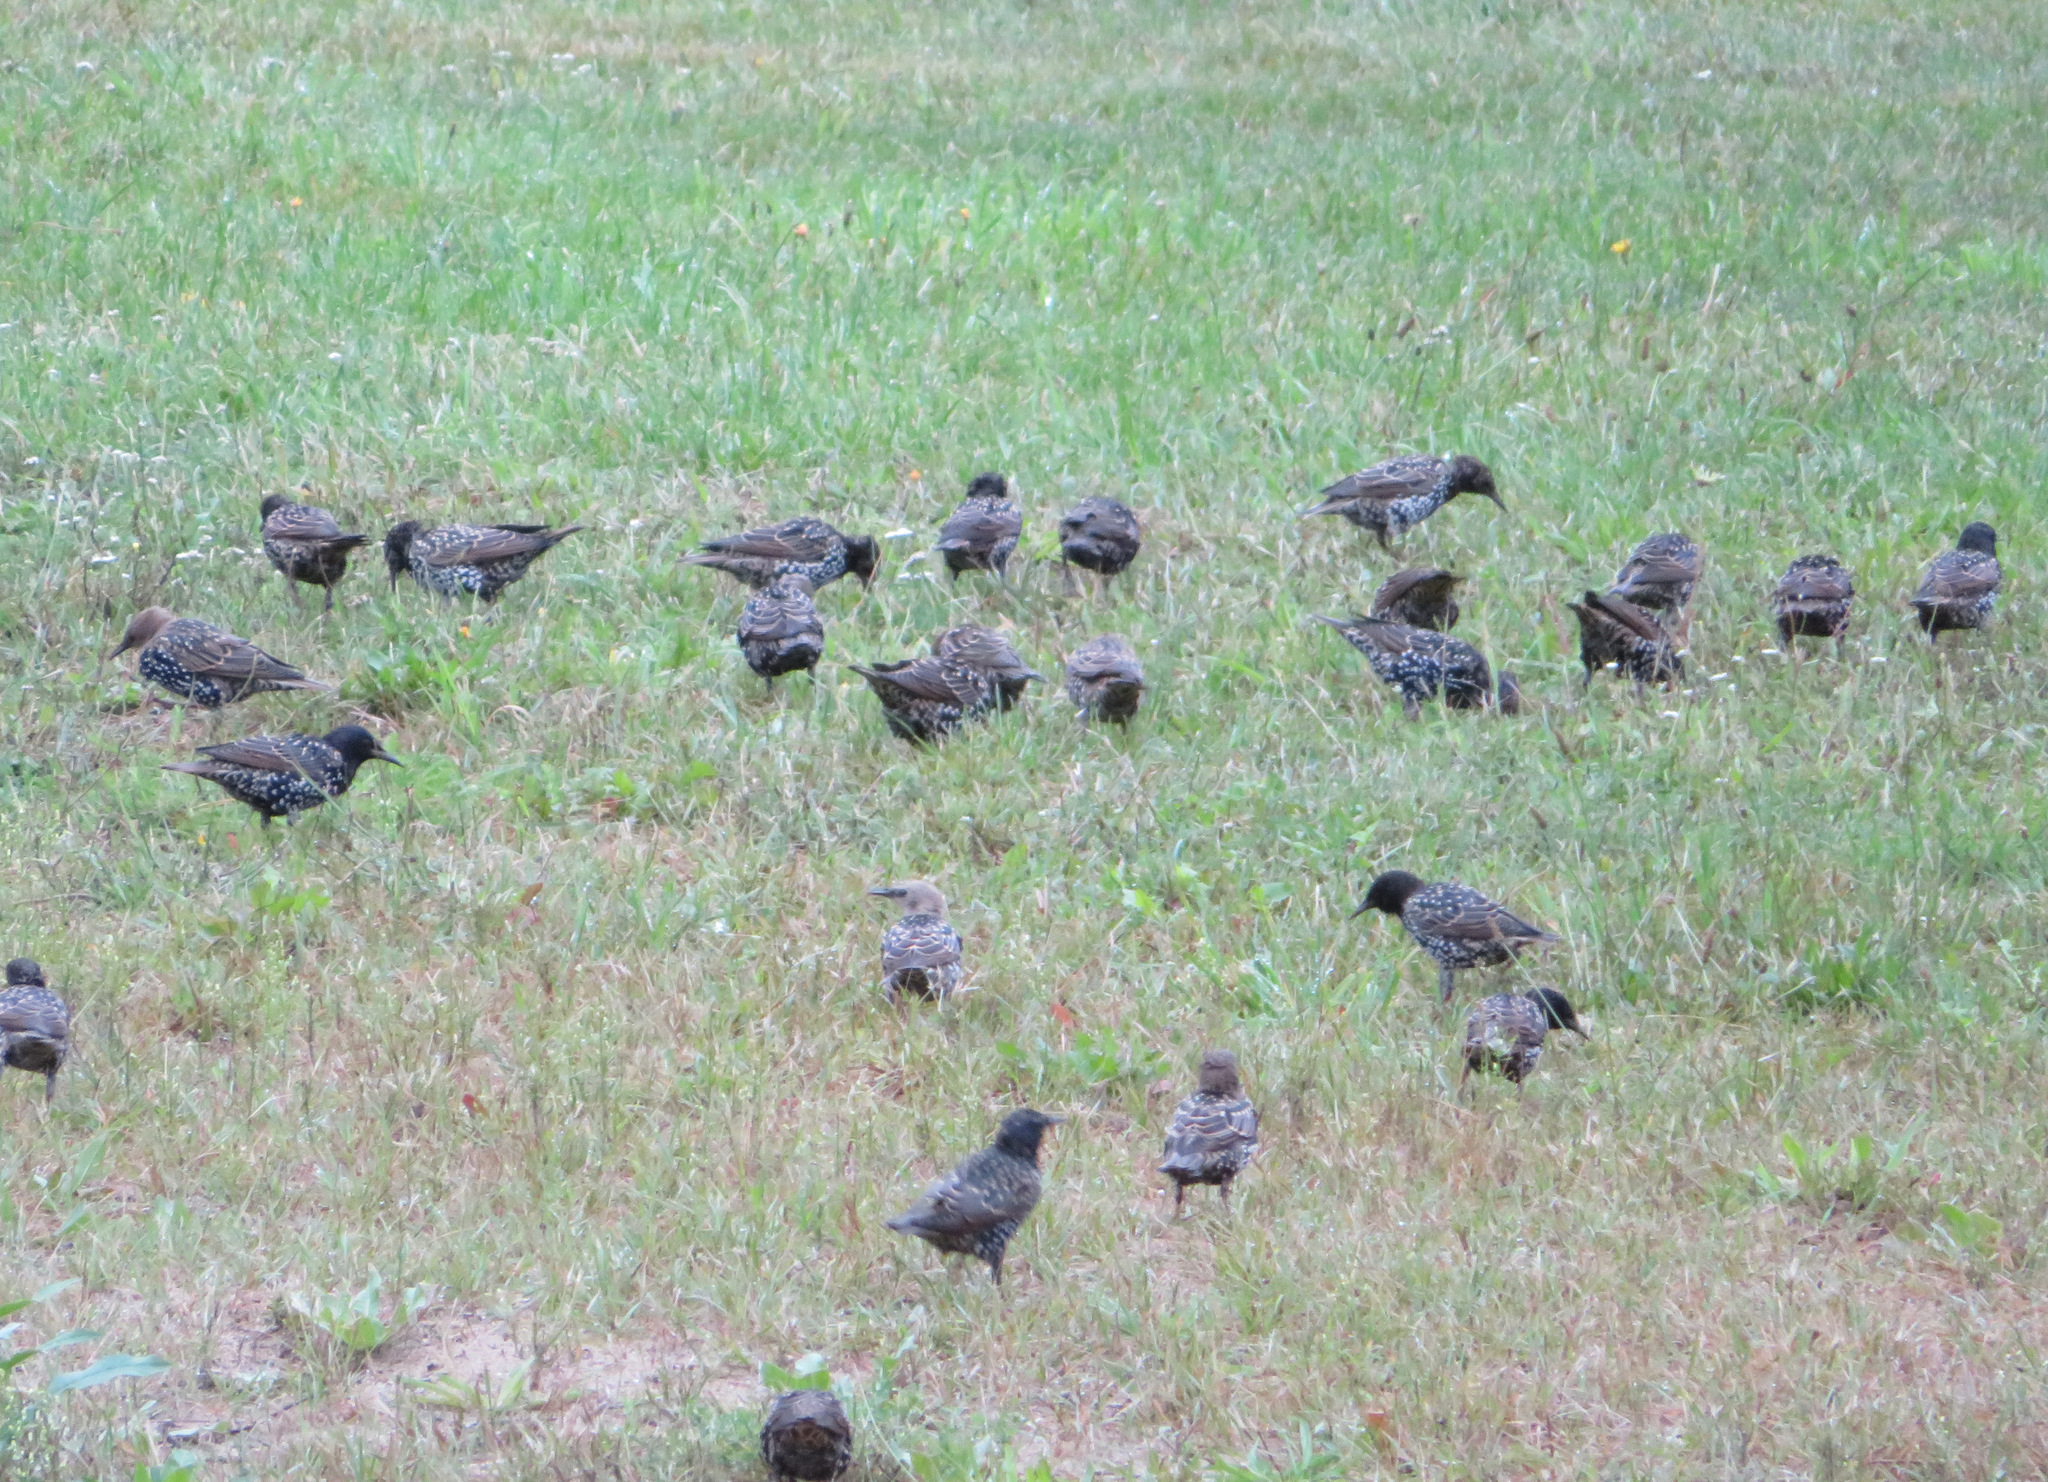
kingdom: Animalia
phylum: Chordata
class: Aves
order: Passeriformes
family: Sturnidae
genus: Sturnus
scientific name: Sturnus vulgaris
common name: Common starling
